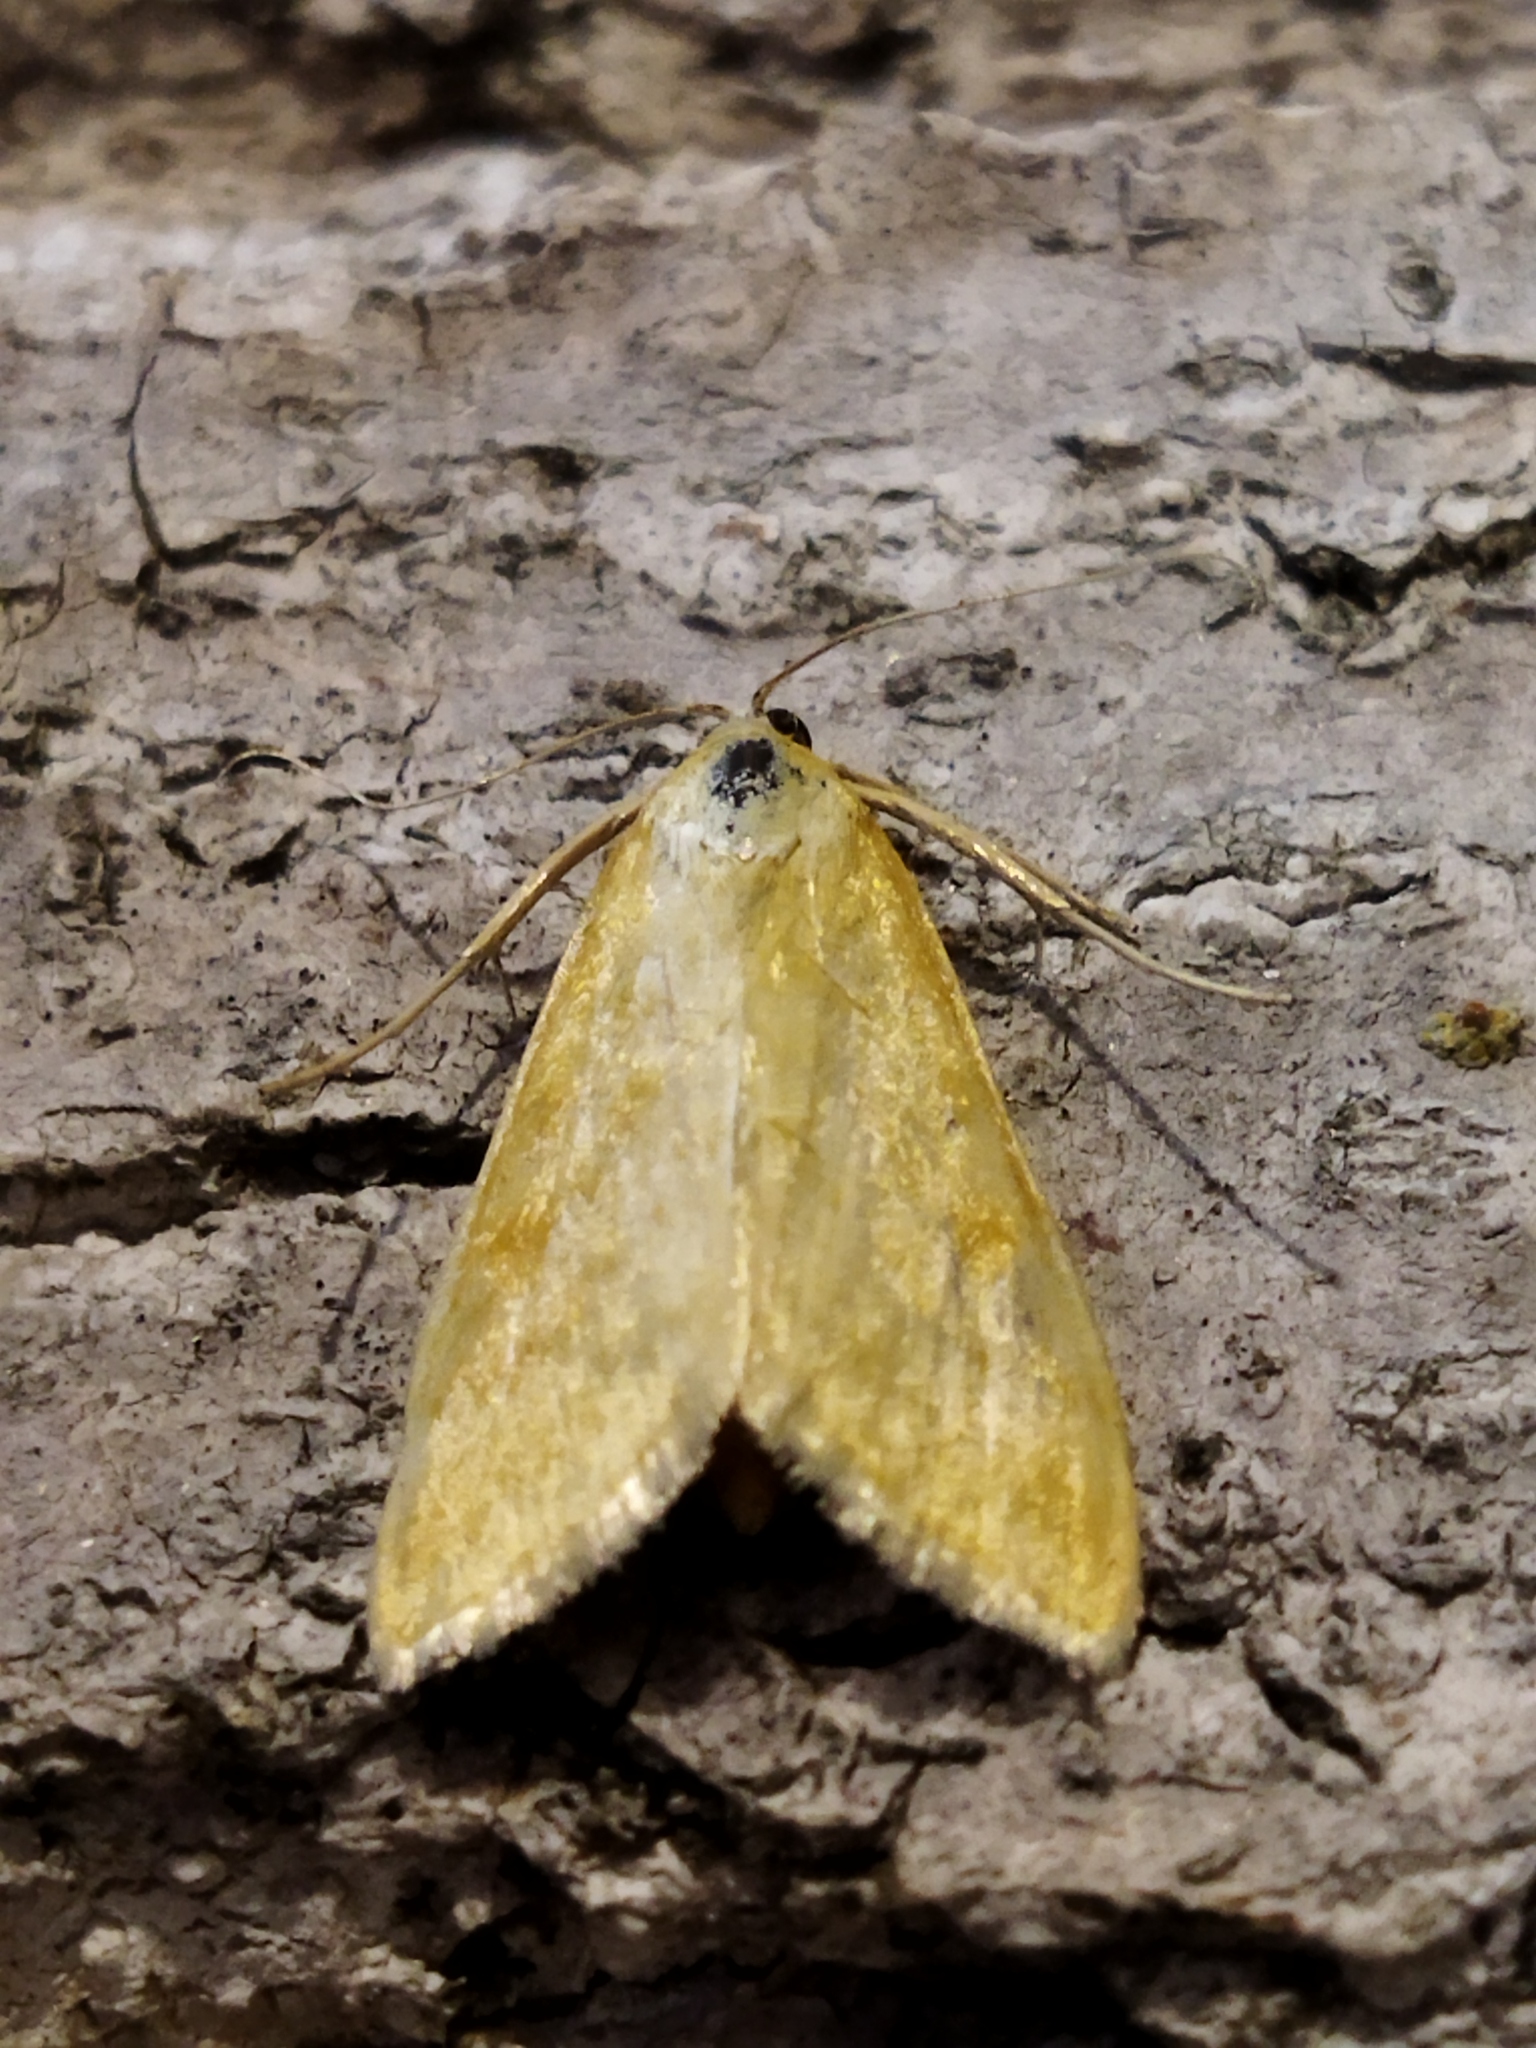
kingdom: Animalia
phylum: Arthropoda
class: Insecta
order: Lepidoptera
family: Crambidae
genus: Sitochroa
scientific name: Sitochroa verticalis
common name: Lesser pearl
